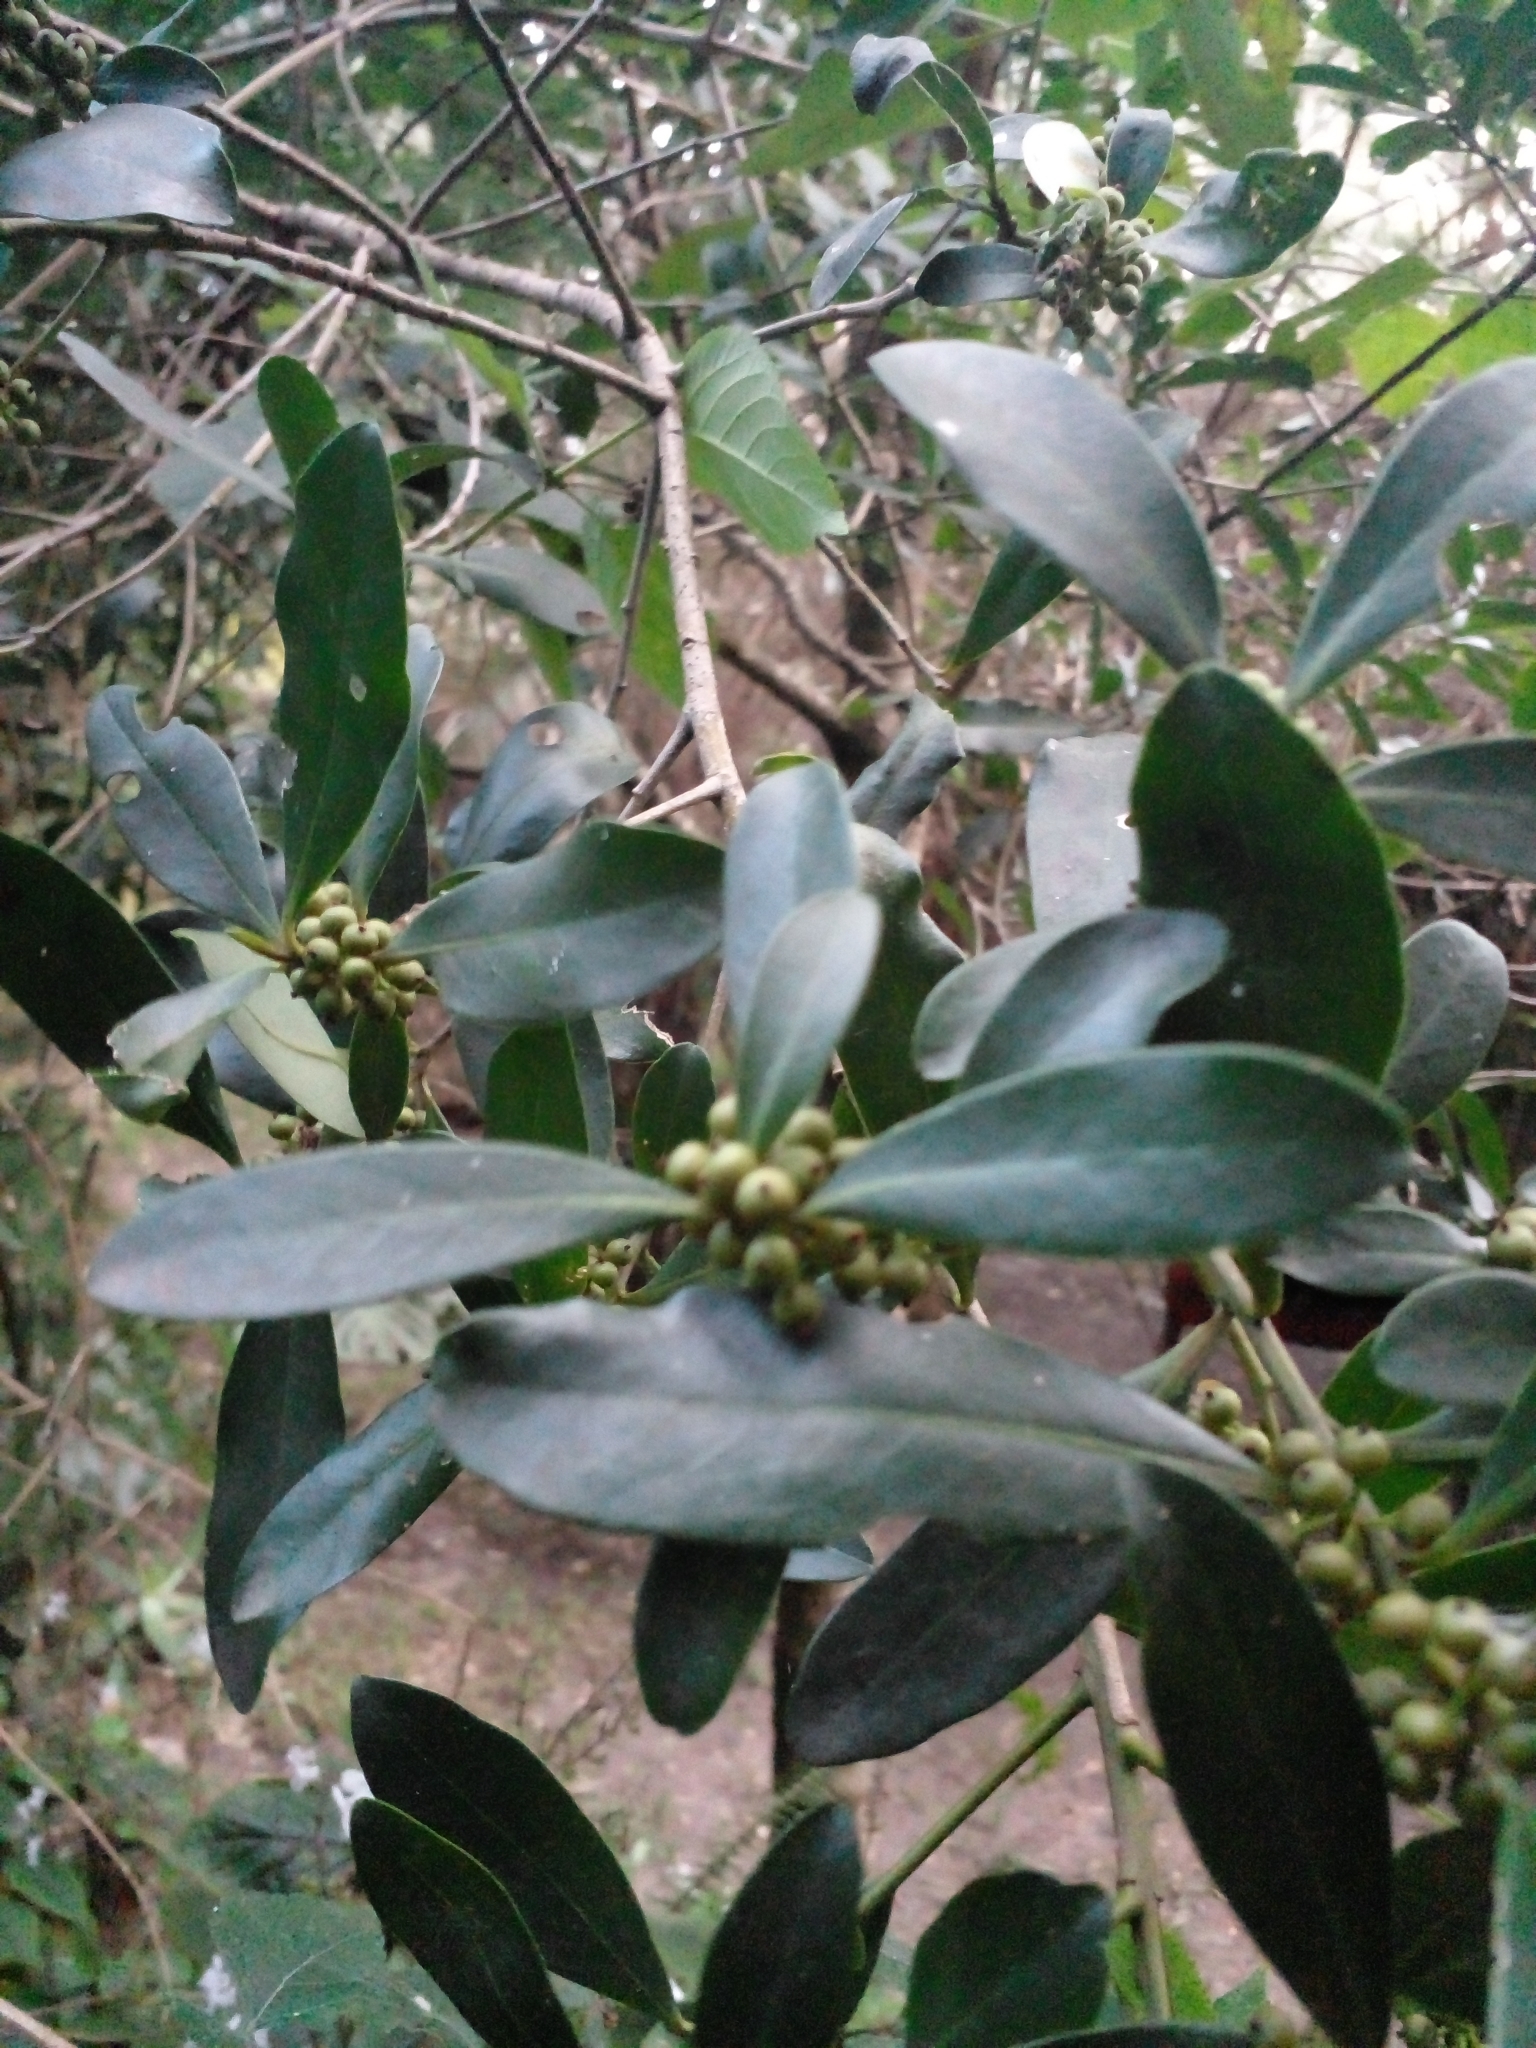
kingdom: Plantae
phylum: Tracheophyta
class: Magnoliopsida
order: Ericales
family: Primulaceae
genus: Myrsine
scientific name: Myrsine laetevirens
